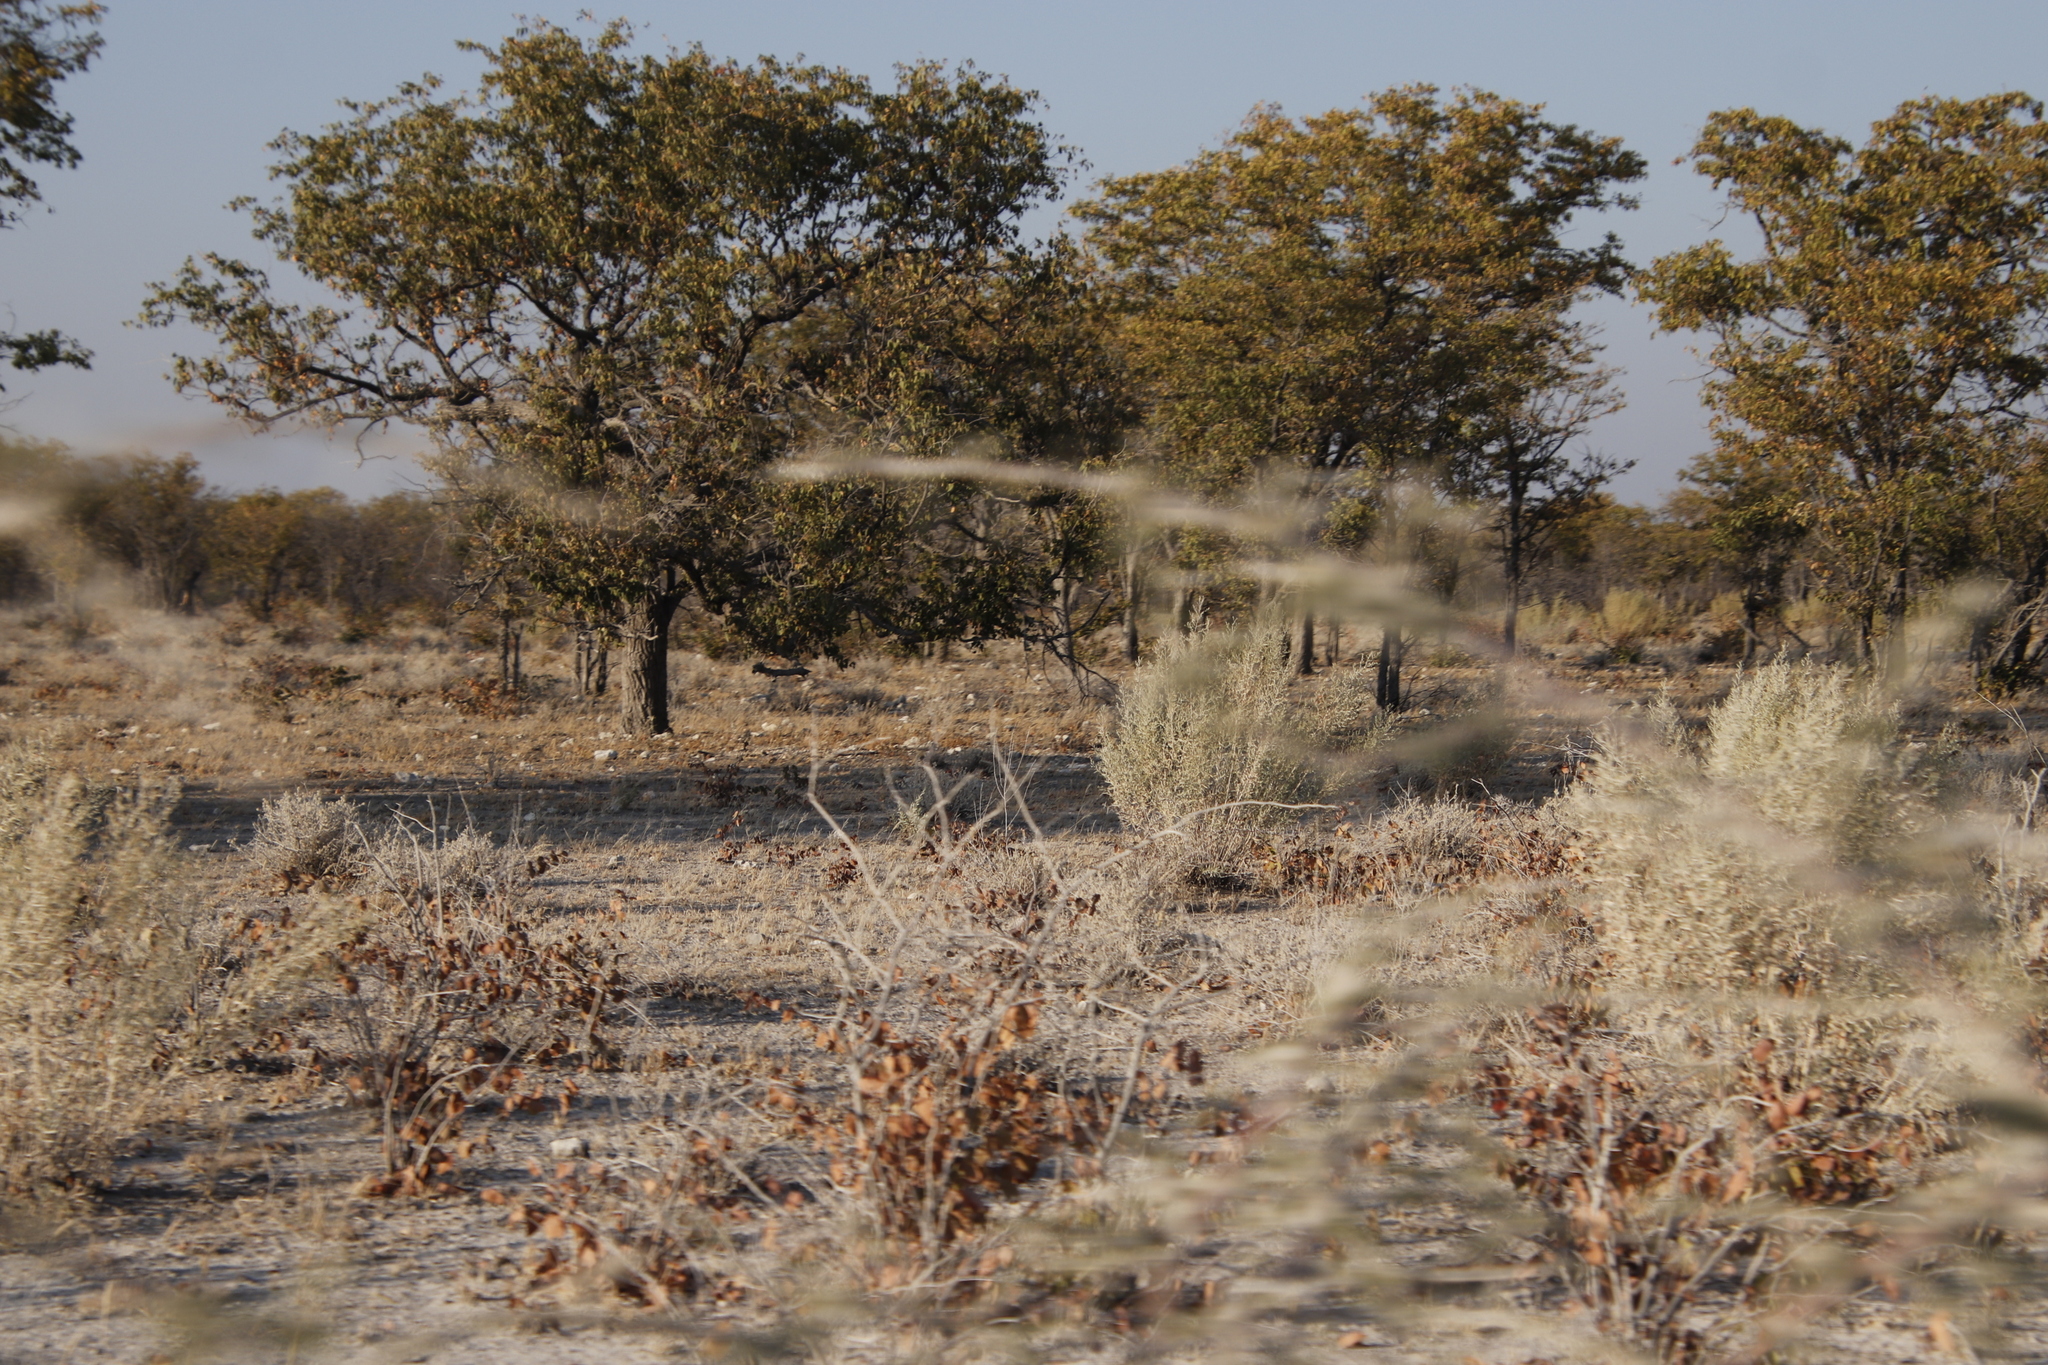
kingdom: Plantae
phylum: Tracheophyta
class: Magnoliopsida
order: Fabales
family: Fabaceae
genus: Colophospermum
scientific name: Colophospermum mopane
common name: Mopane
